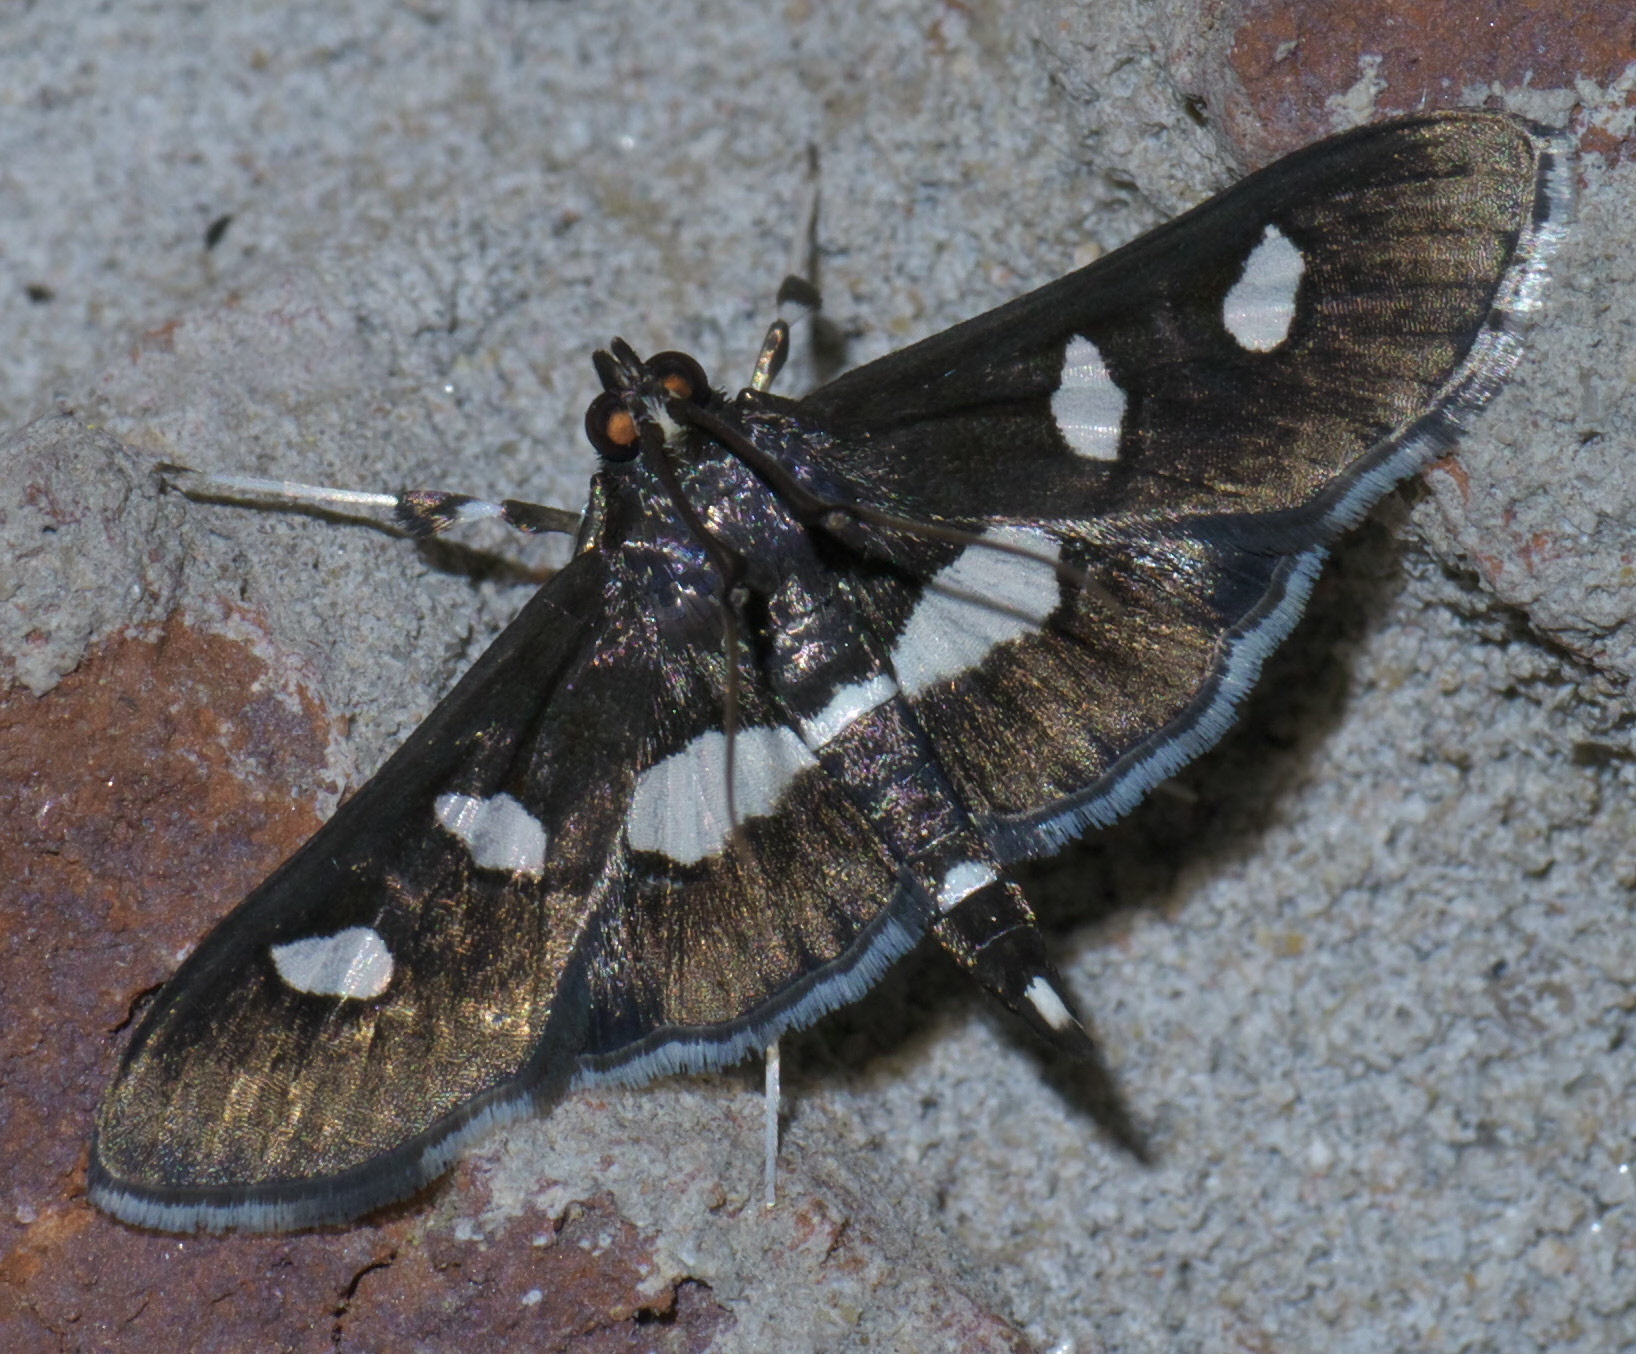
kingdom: Animalia
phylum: Arthropoda
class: Insecta
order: Lepidoptera
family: Crambidae
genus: Desmia
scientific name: Desmia
